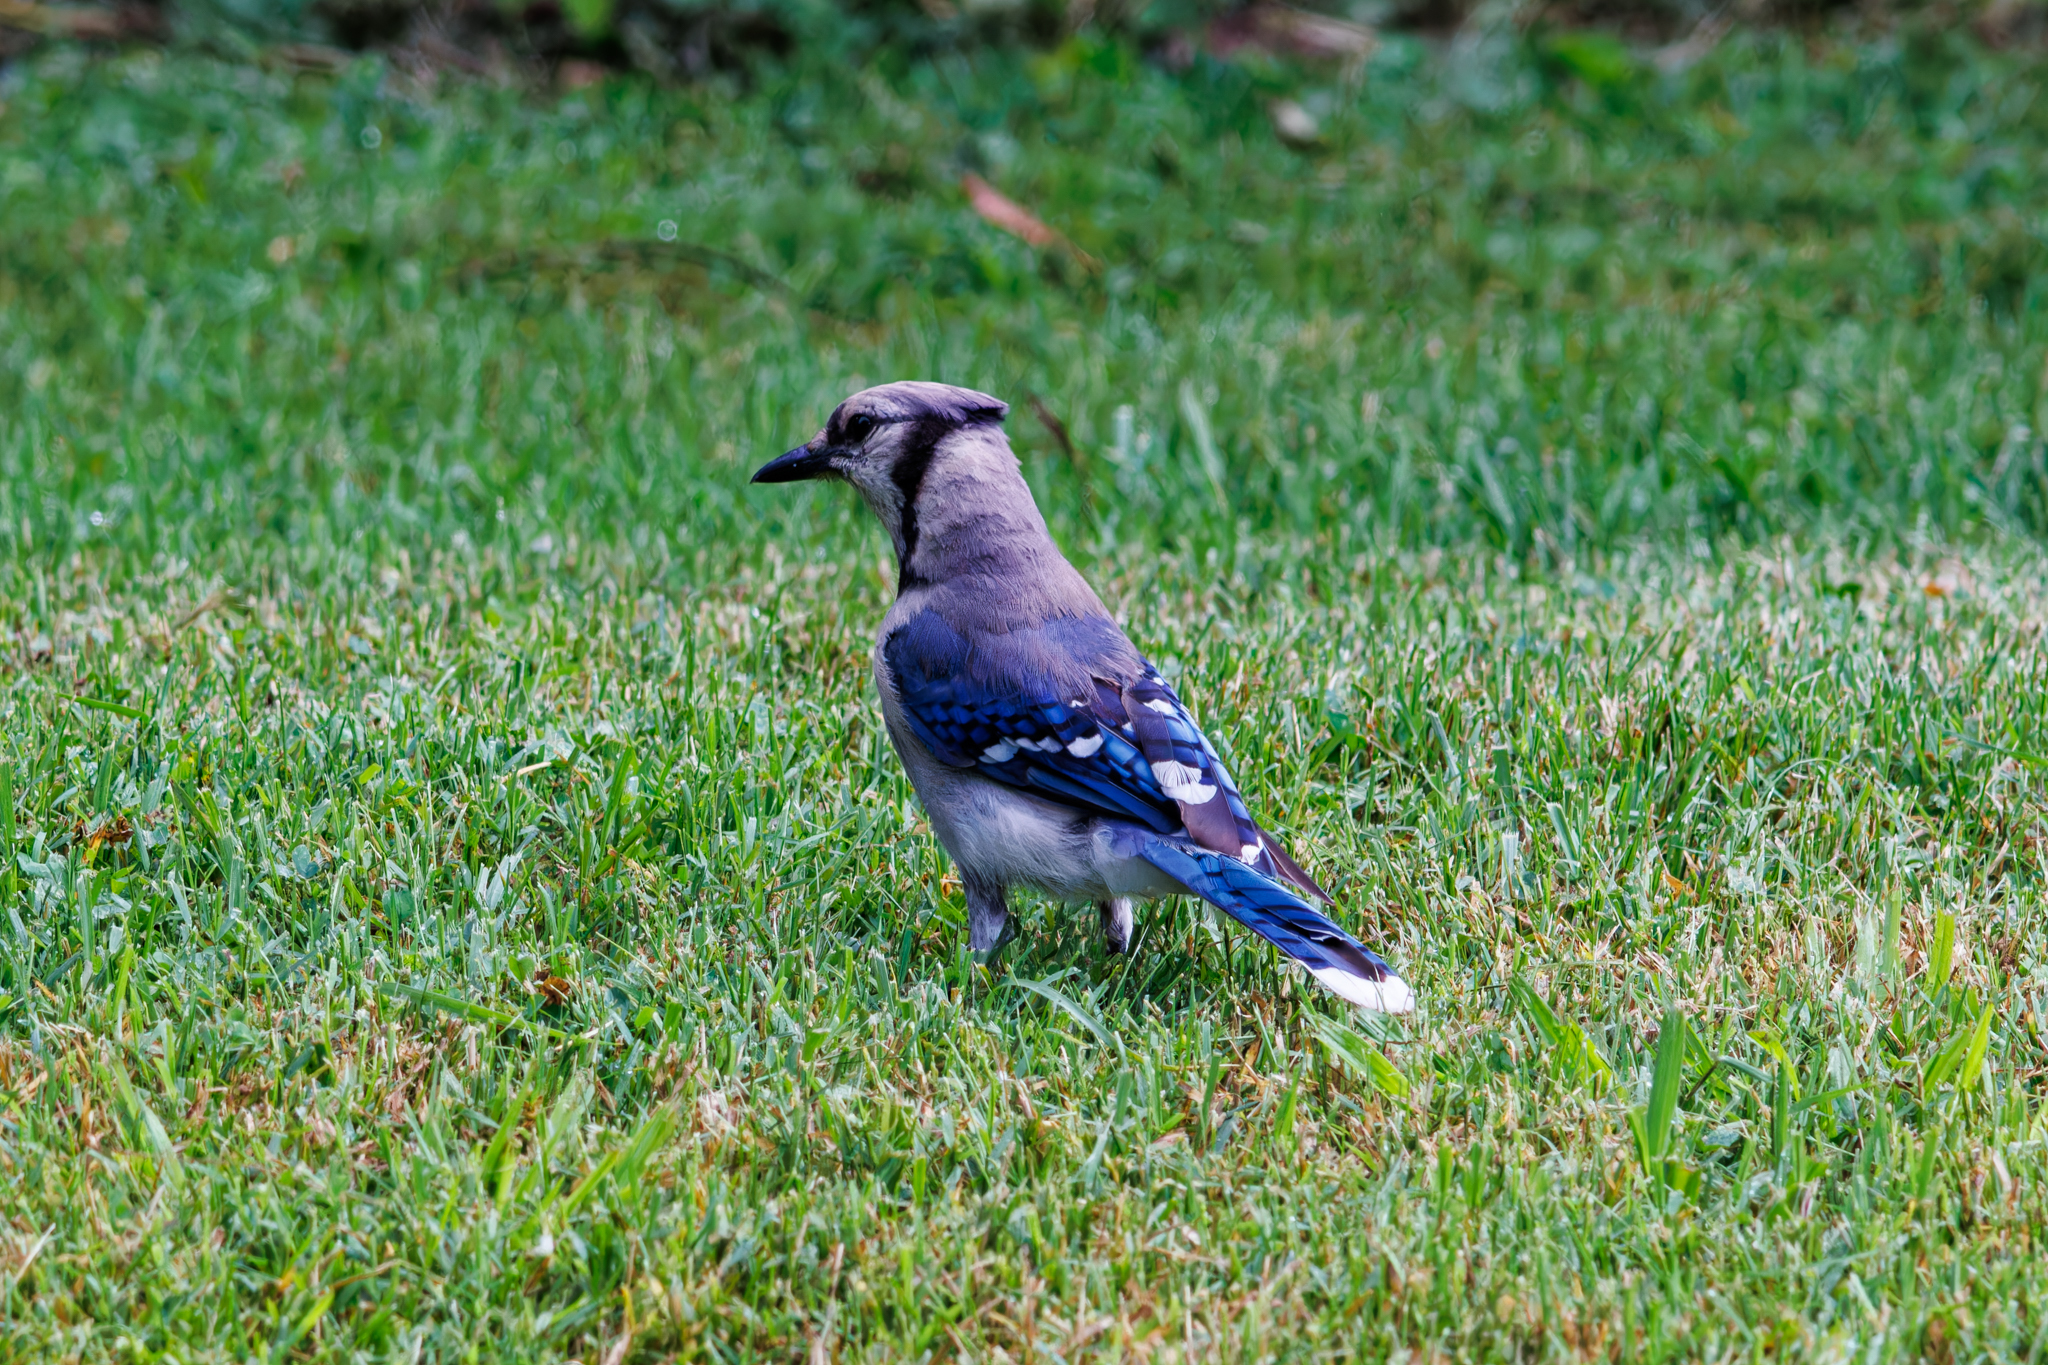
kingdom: Animalia
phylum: Chordata
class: Aves
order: Passeriformes
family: Corvidae
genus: Cyanocitta
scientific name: Cyanocitta cristata
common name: Blue jay
